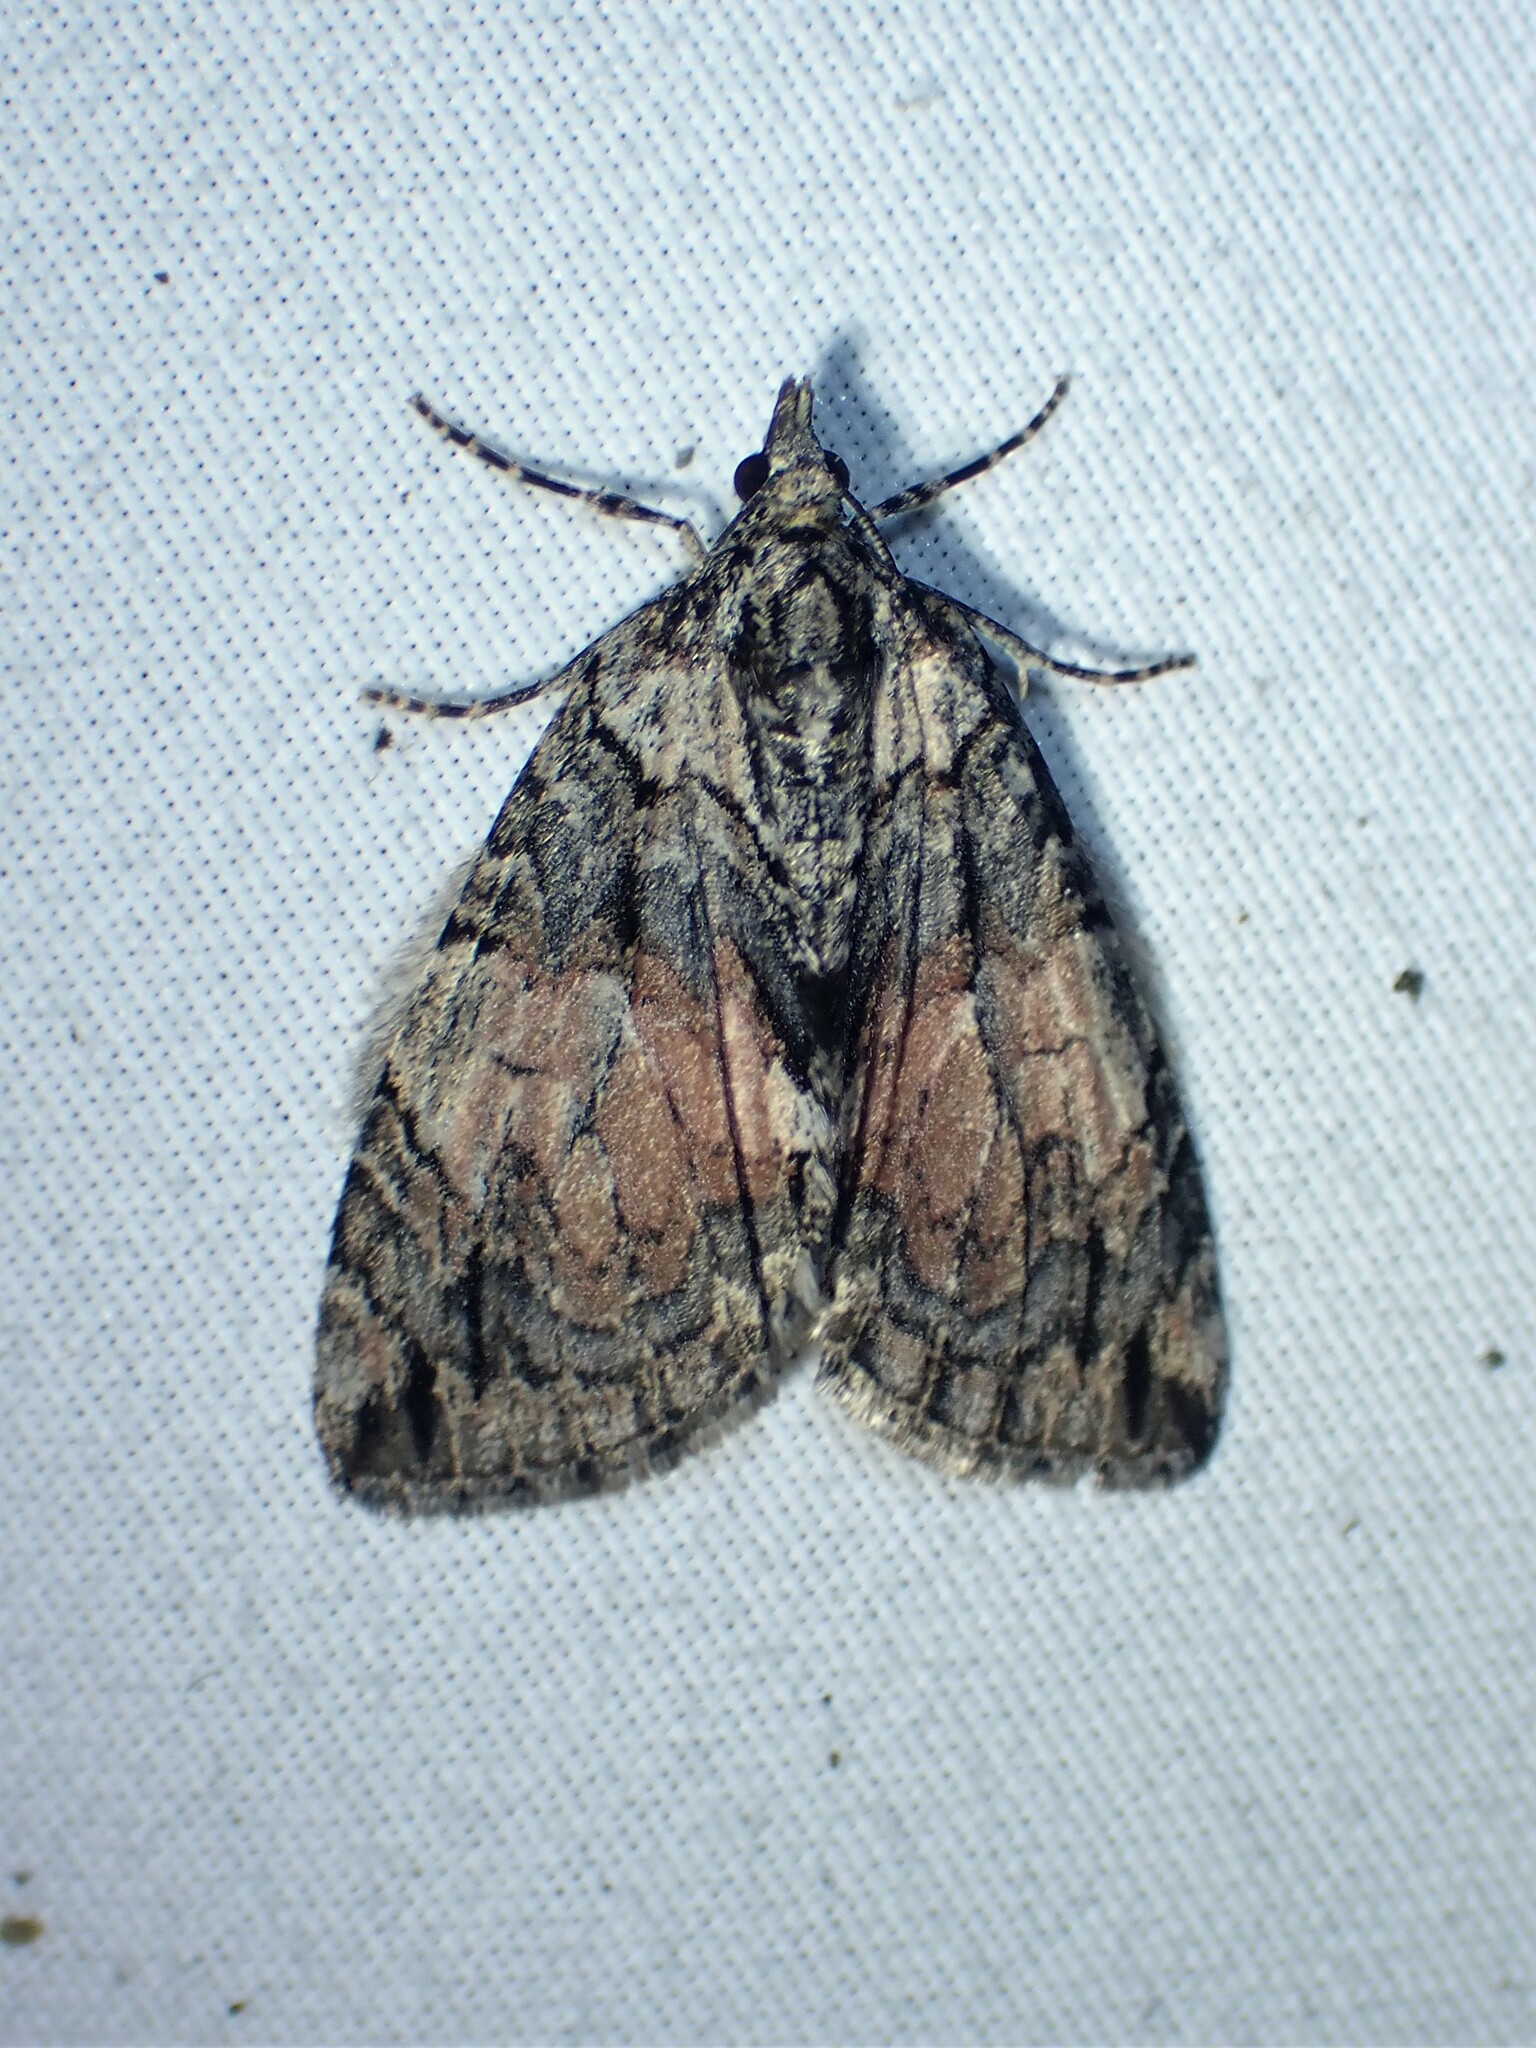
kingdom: Animalia
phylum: Arthropoda
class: Insecta
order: Lepidoptera
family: Geometridae
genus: Hydriomena
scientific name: Hydriomena perfracta
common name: Shattered hydriomena moth
